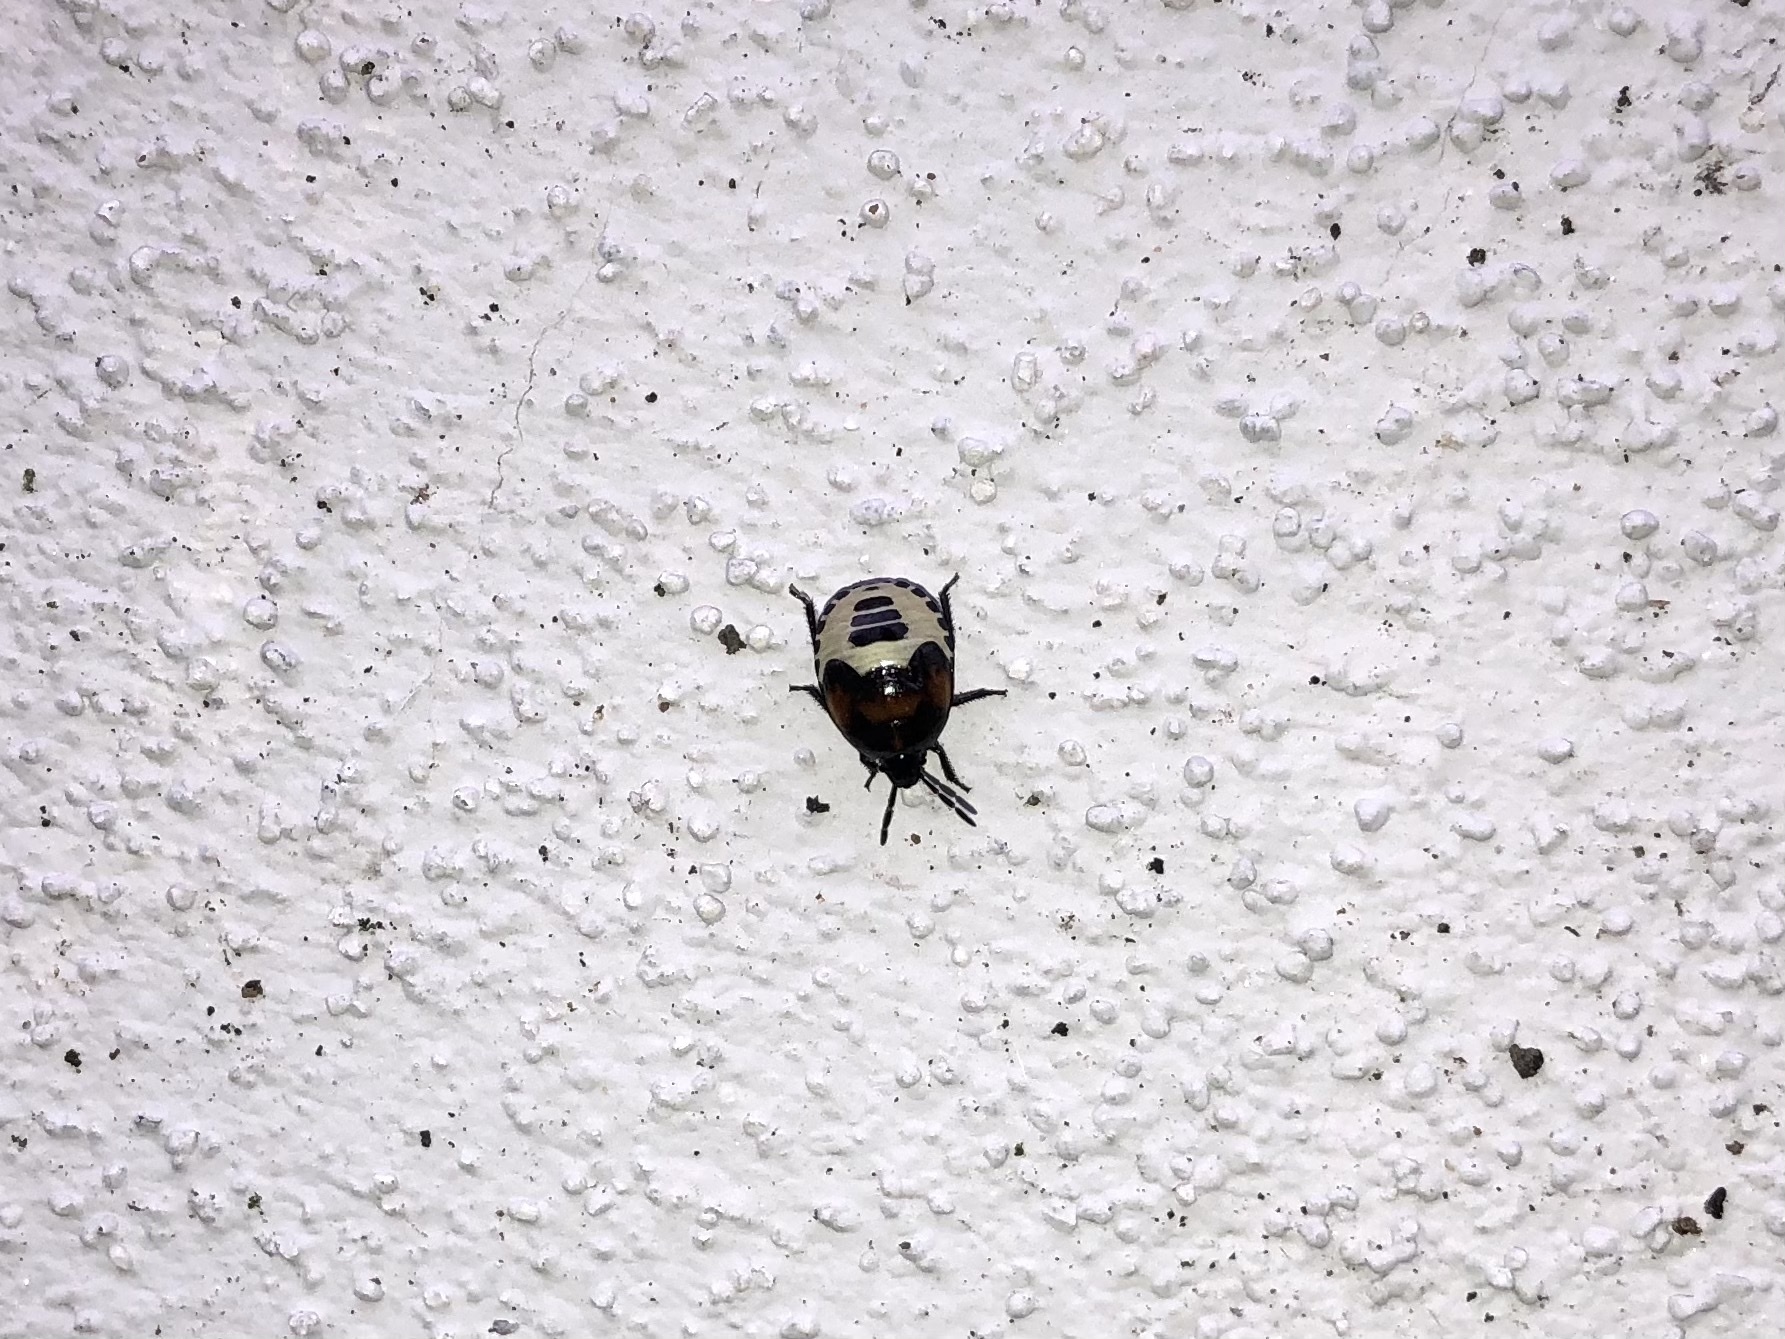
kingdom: Animalia
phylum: Arthropoda
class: Insecta
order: Hemiptera
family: Cydnidae
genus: Tritomegas
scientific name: Tritomegas sexmaculatus
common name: Rambur's pied shieldbug
